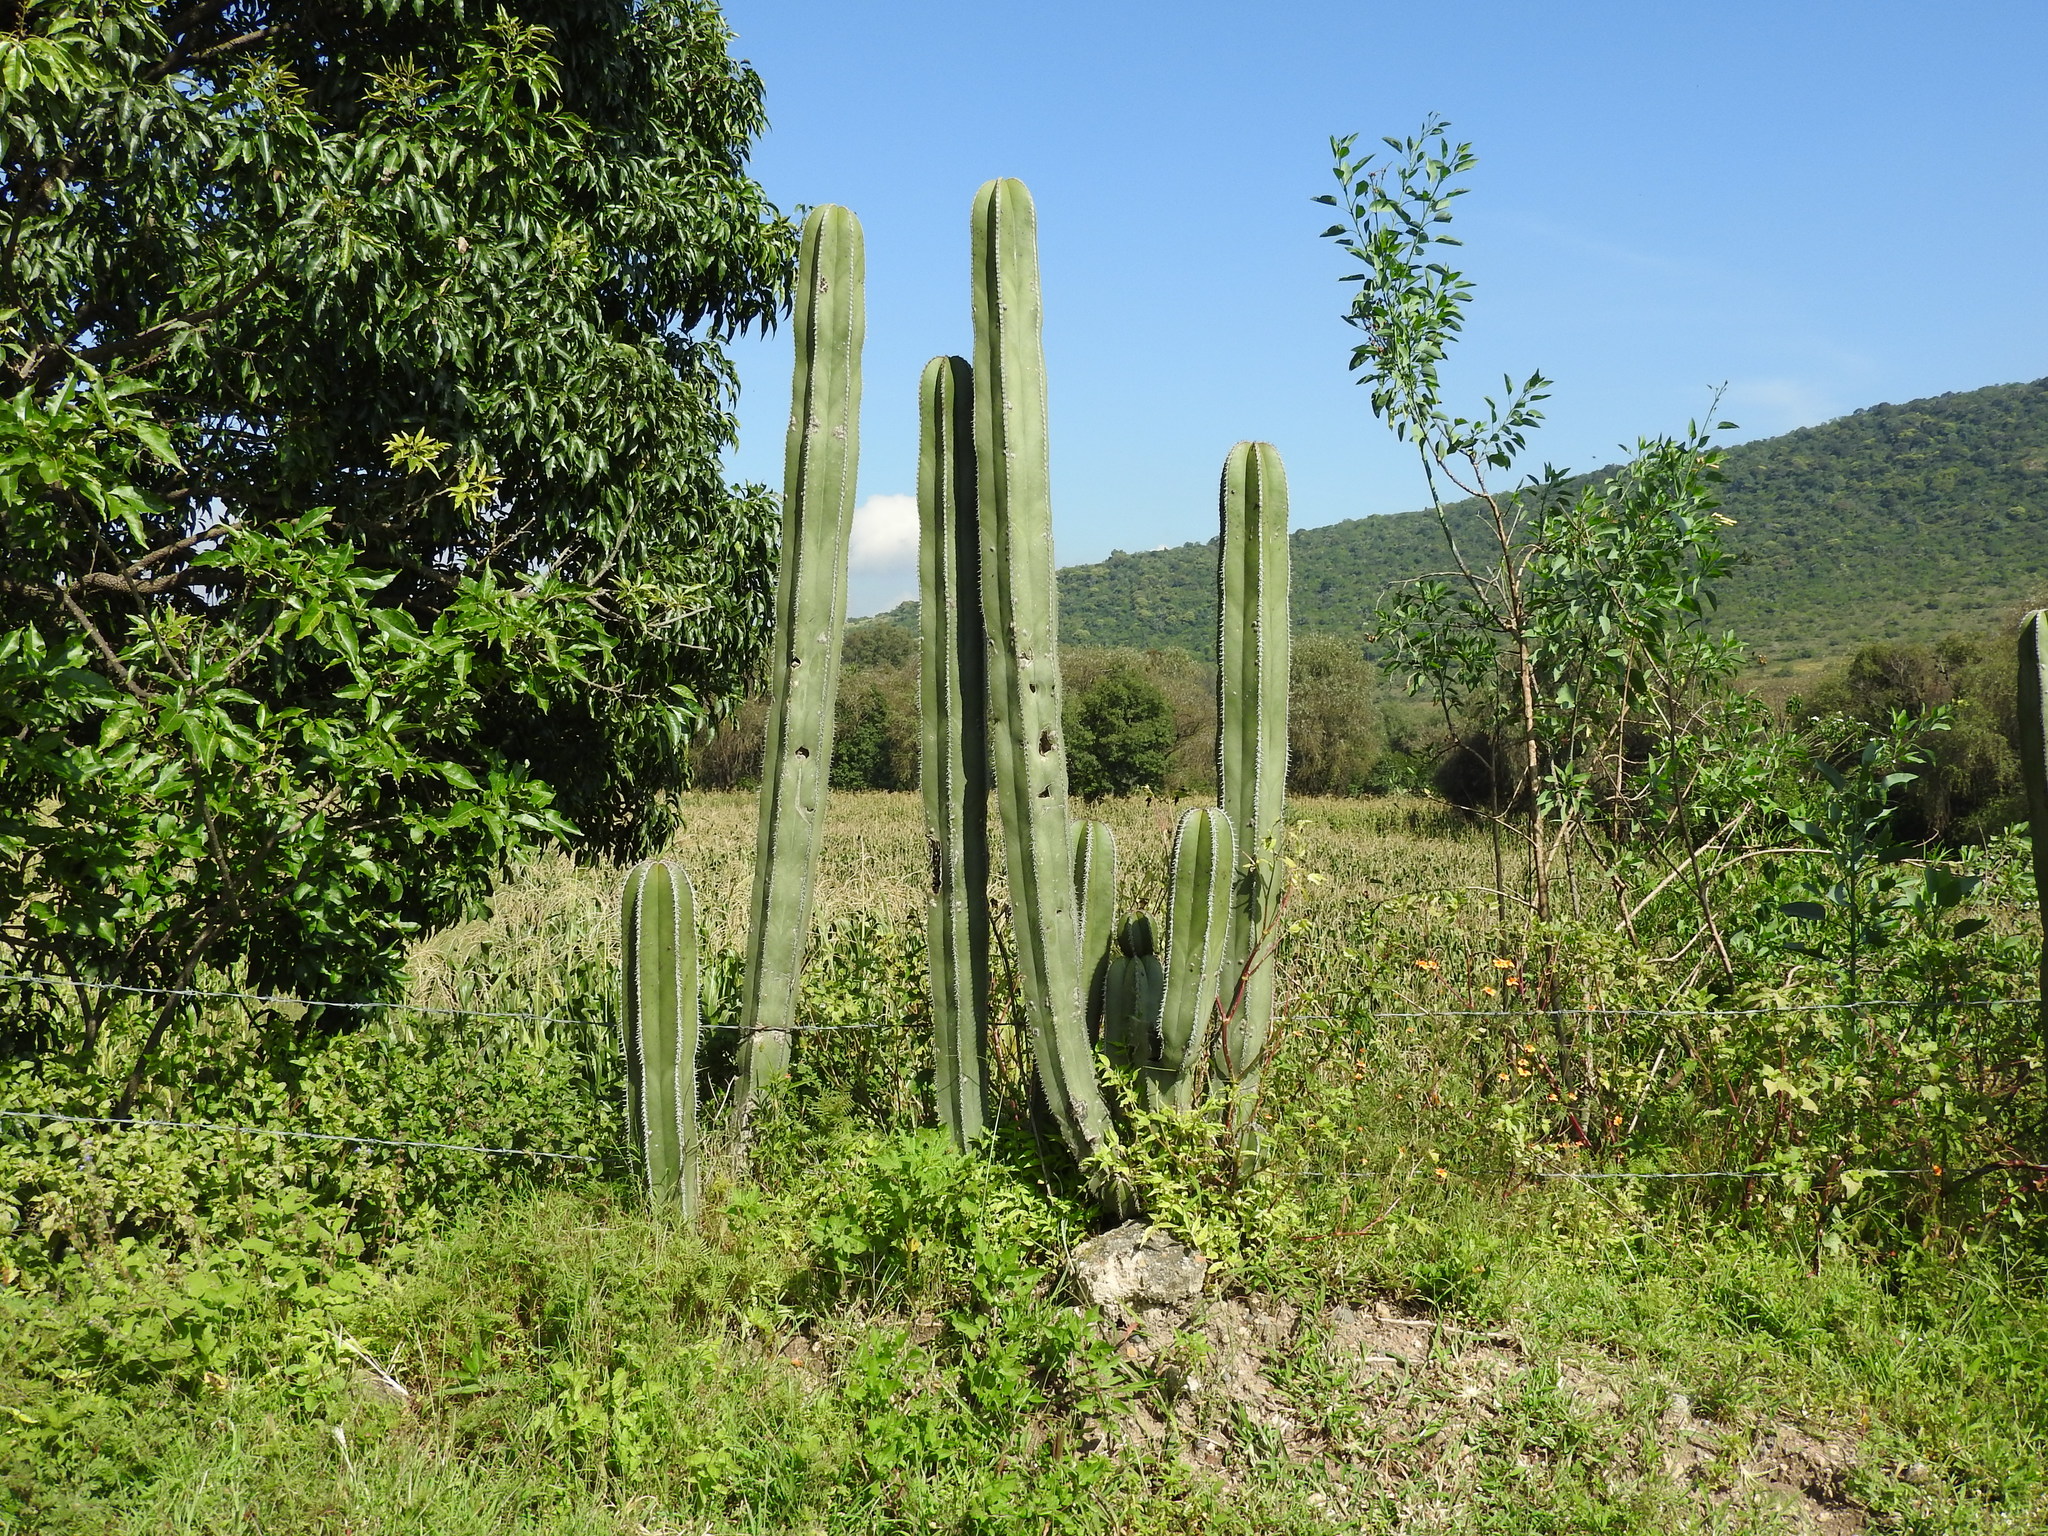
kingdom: Plantae
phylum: Tracheophyta
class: Magnoliopsida
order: Caryophyllales
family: Cactaceae
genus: Marginatocereus
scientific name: Marginatocereus marginatus
